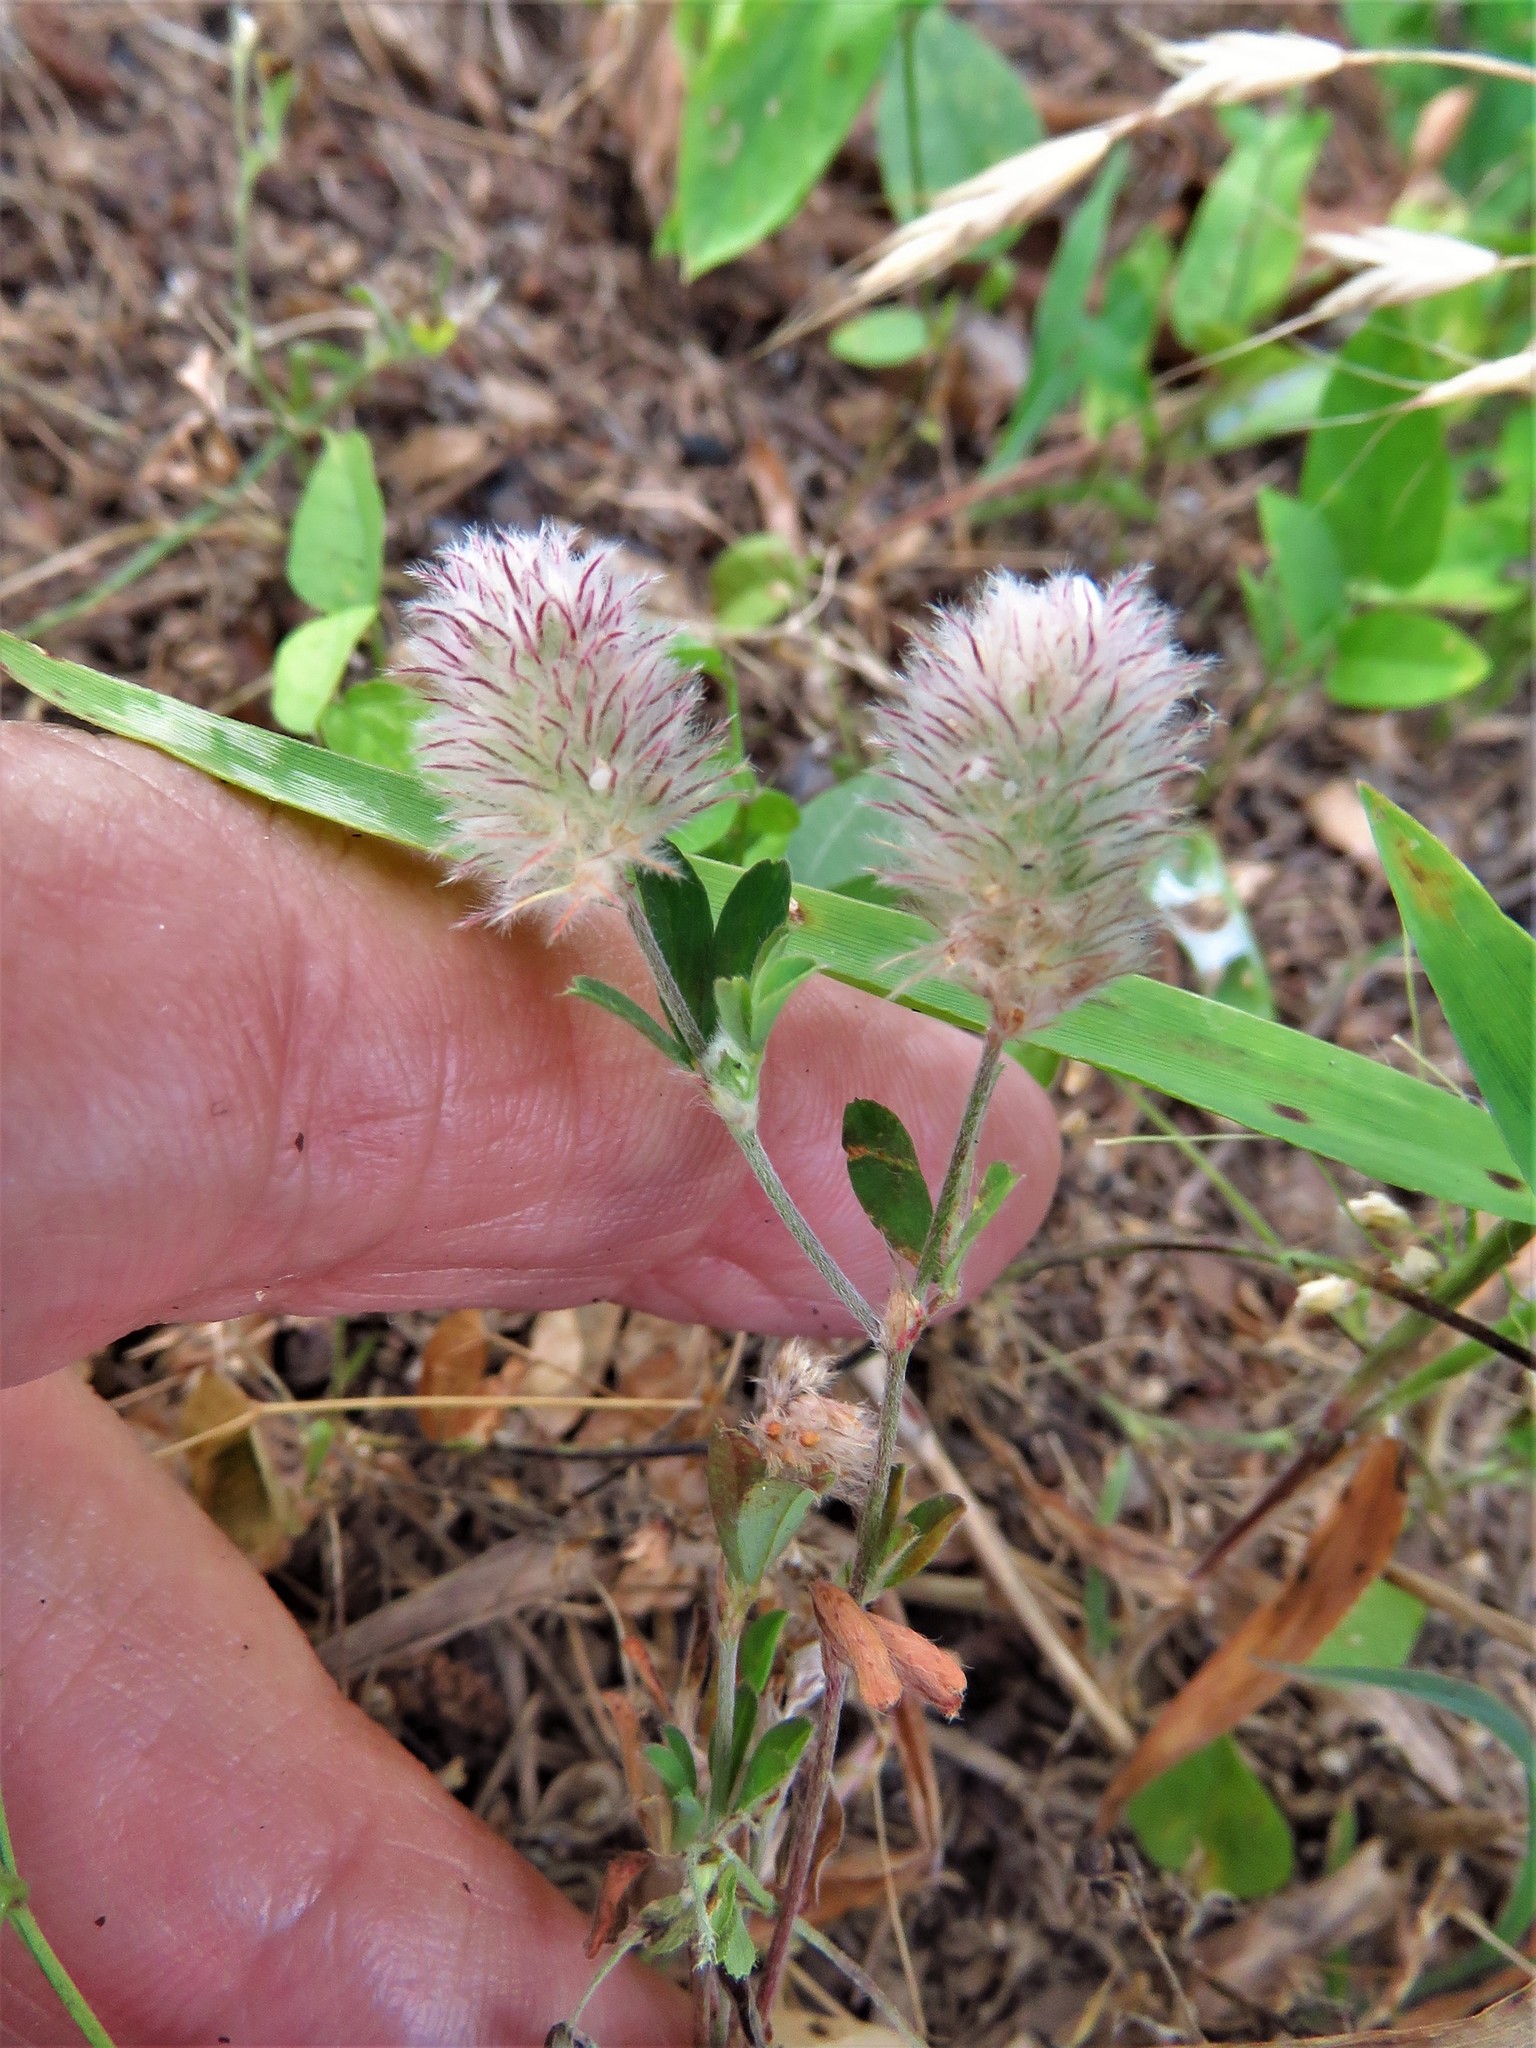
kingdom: Plantae
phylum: Tracheophyta
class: Magnoliopsida
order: Fabales
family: Fabaceae
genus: Trifolium
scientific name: Trifolium arvense
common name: Hare's-foot clover
